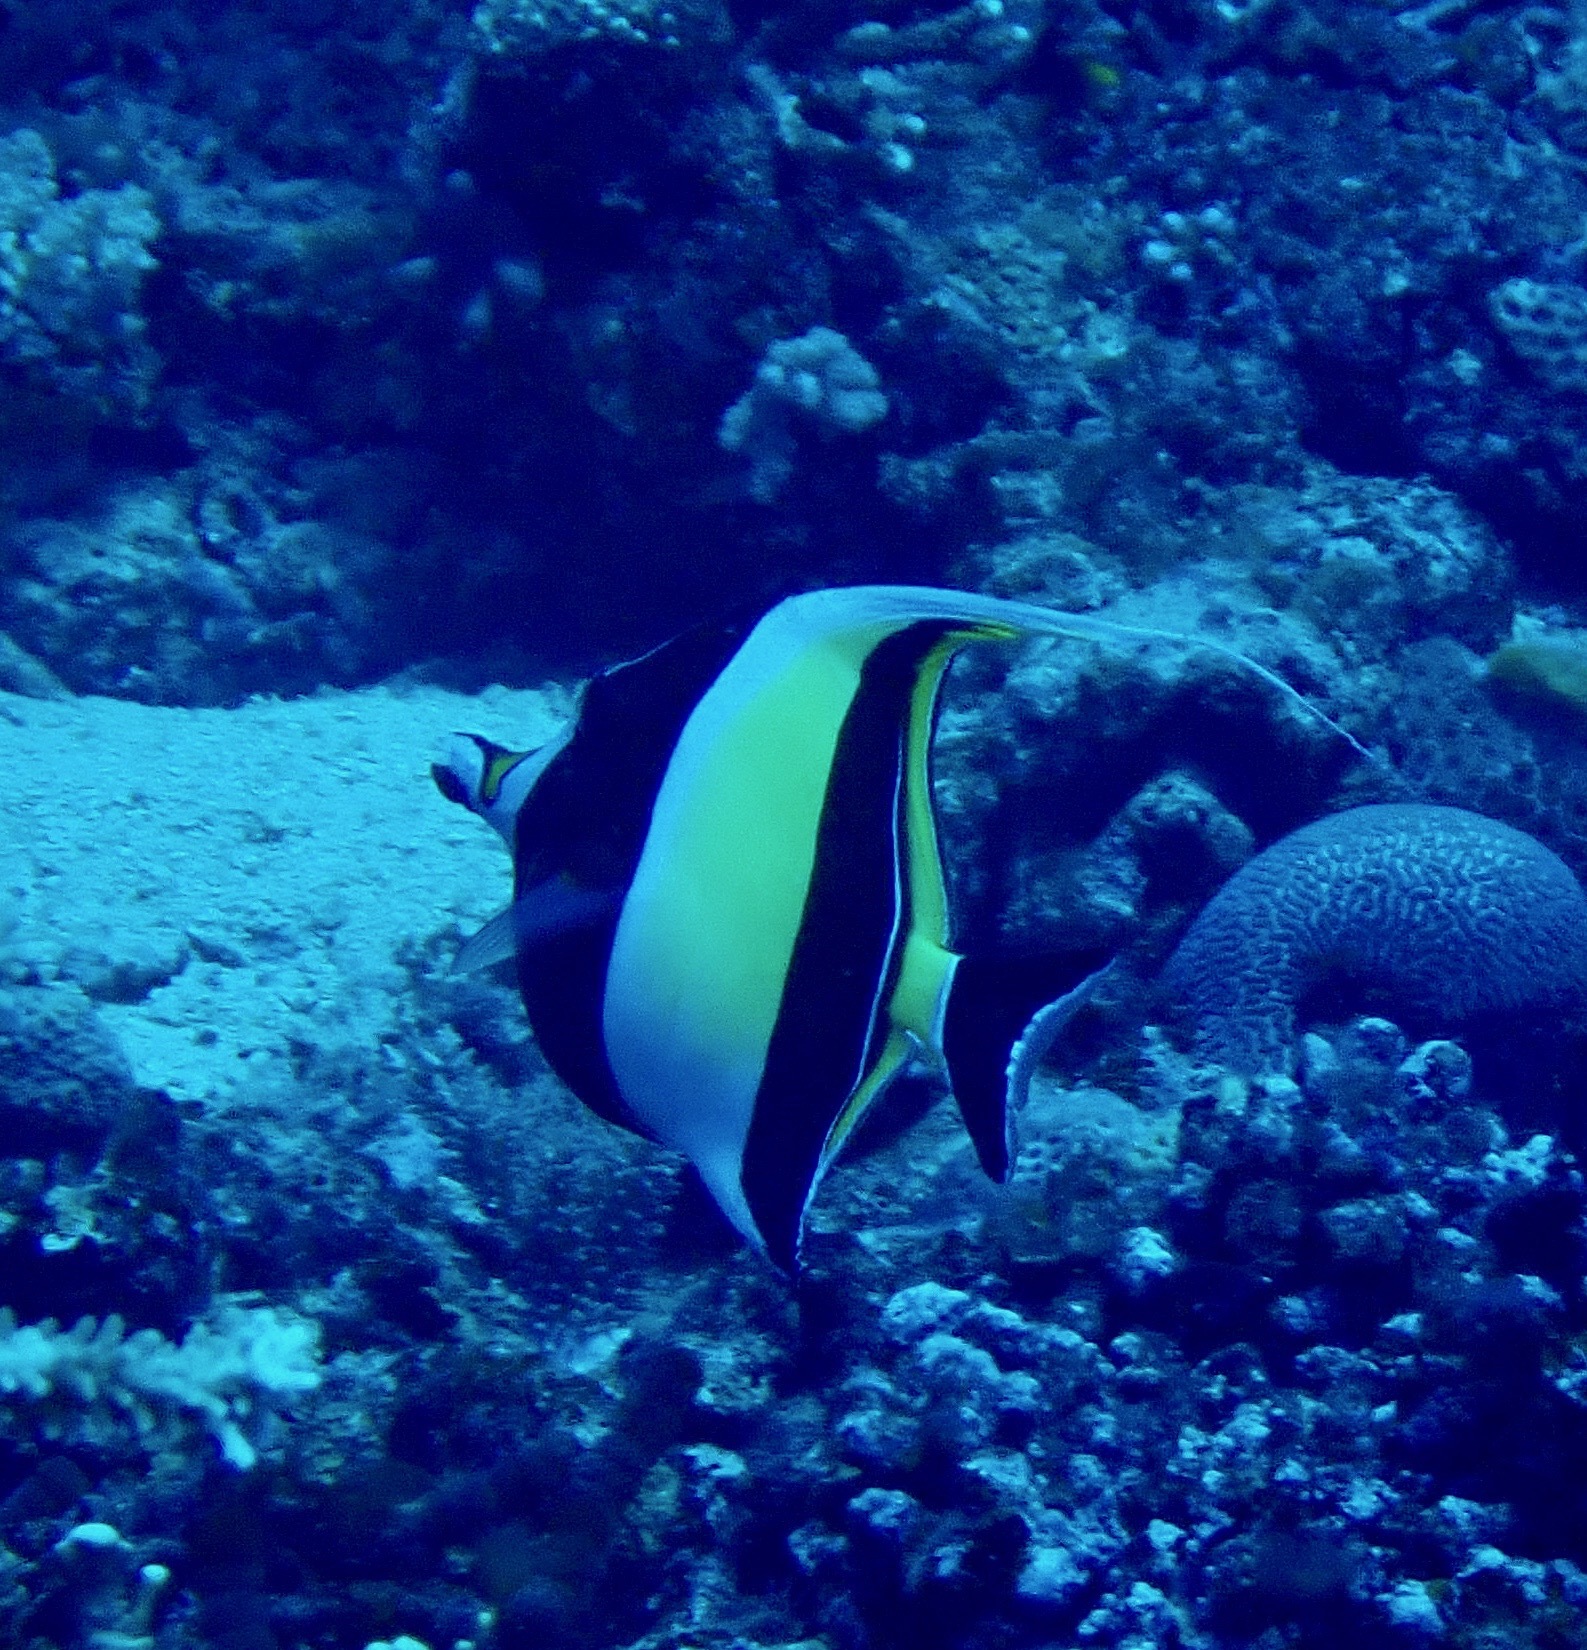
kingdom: Animalia
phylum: Chordata
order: Perciformes
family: Zanclidae
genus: Zanclus
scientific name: Zanclus cornutus
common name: Moorish idol
